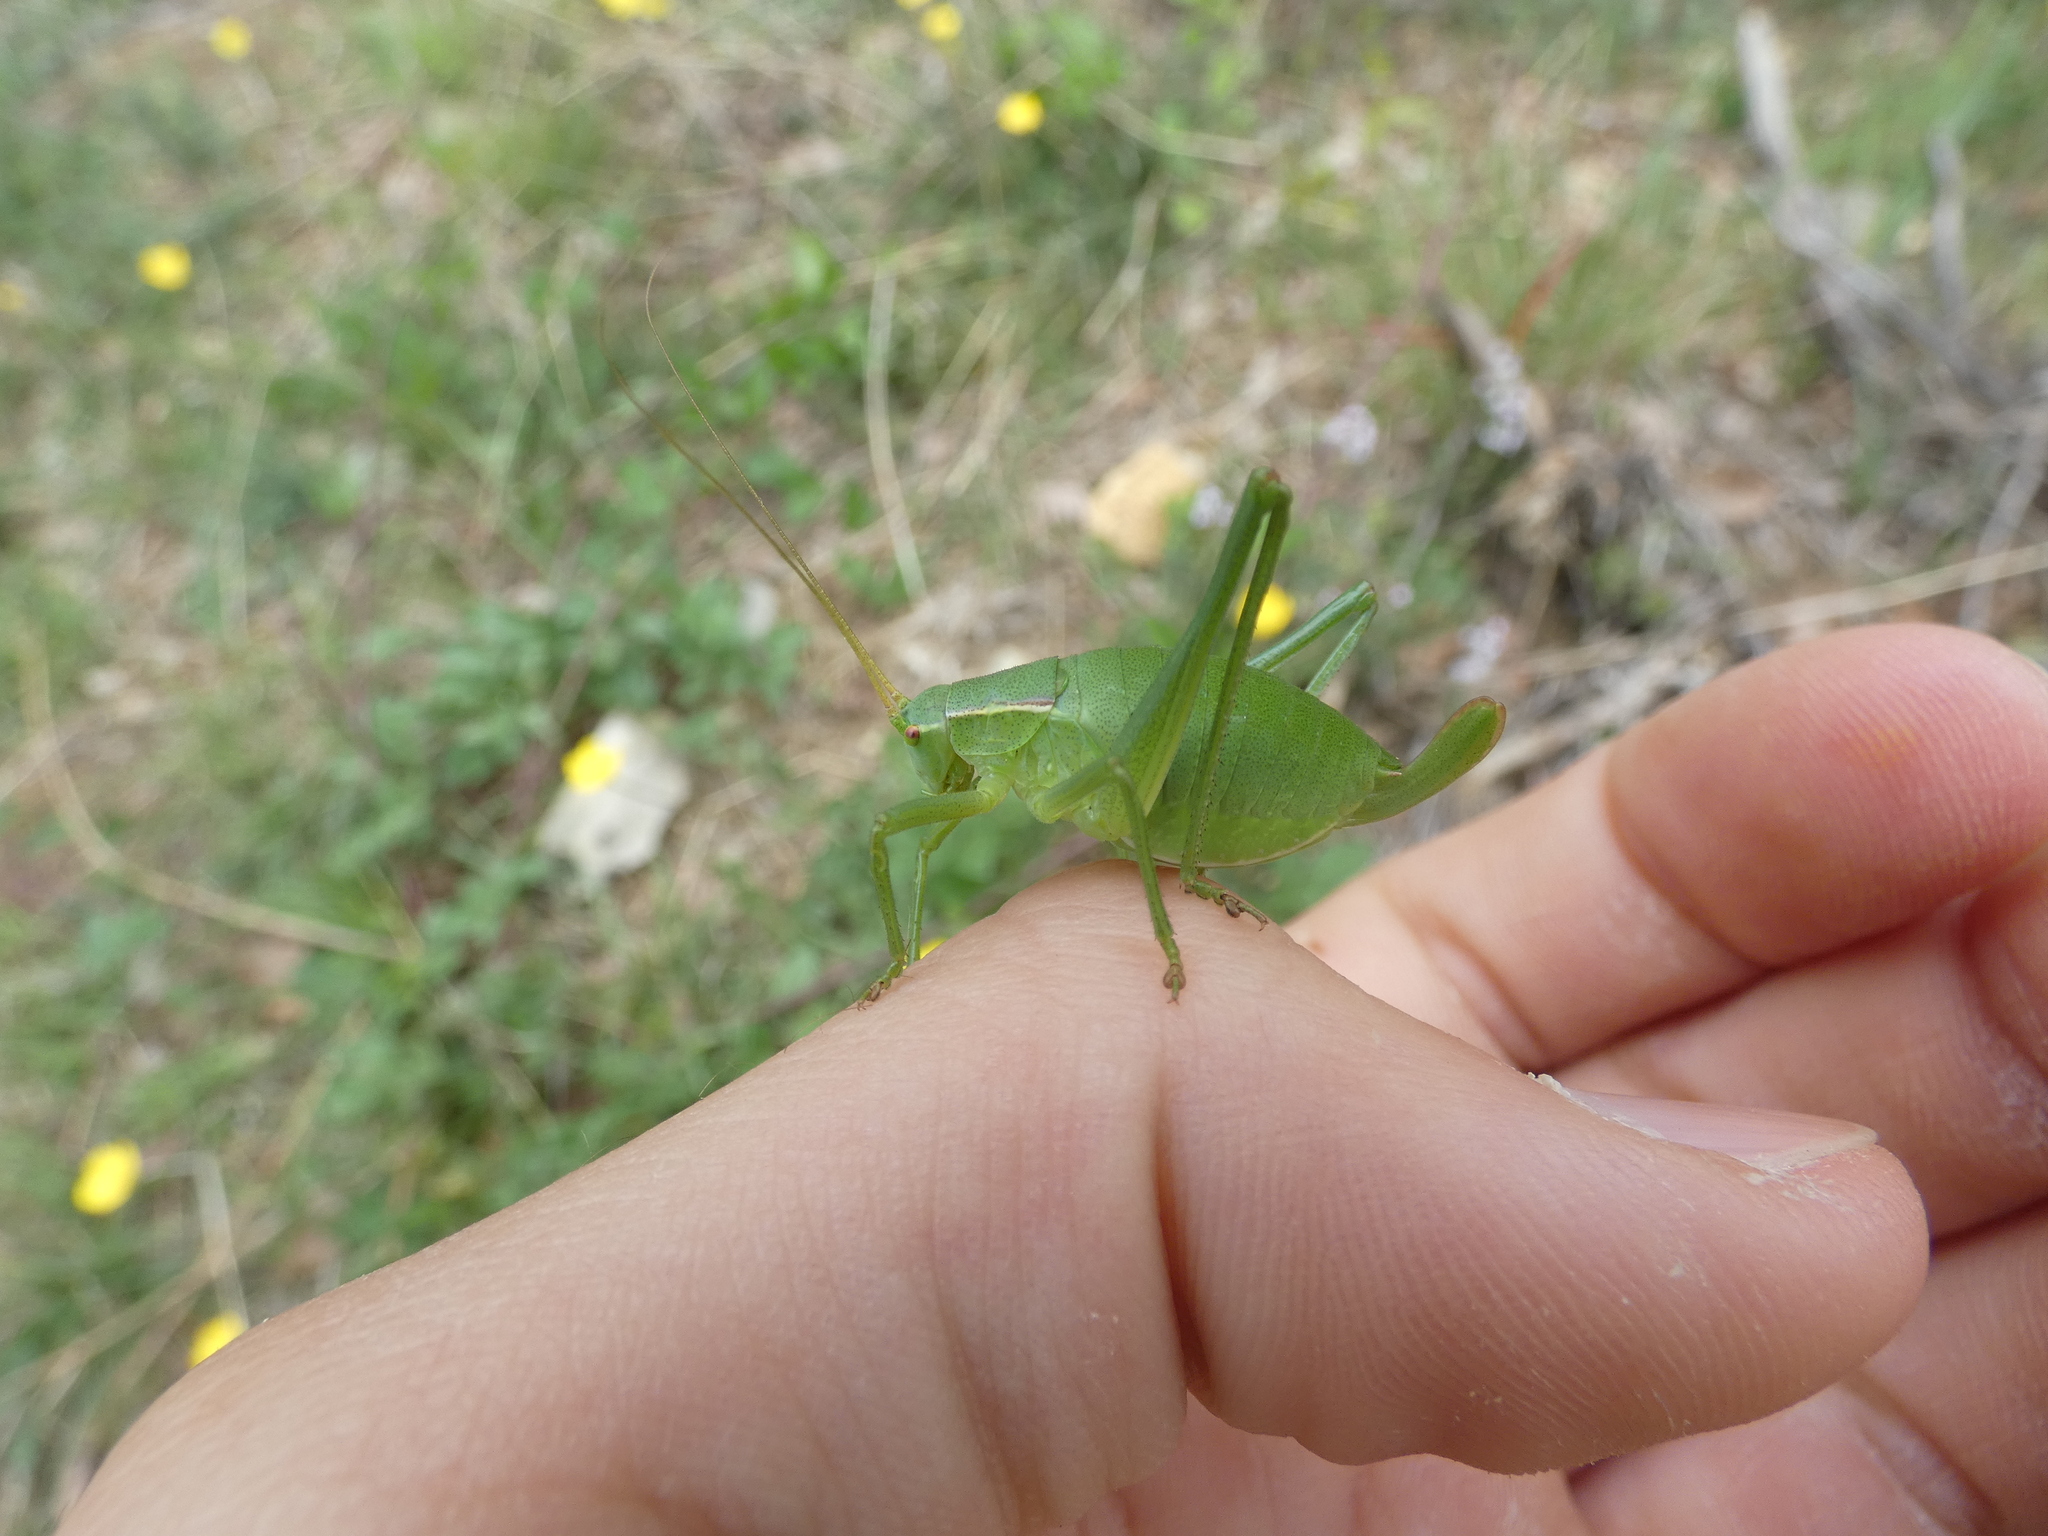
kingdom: Animalia
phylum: Arthropoda
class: Insecta
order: Orthoptera
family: Tettigoniidae
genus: Isophya
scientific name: Isophya pyrenaea
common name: Pyrenean plump bush-cricket
